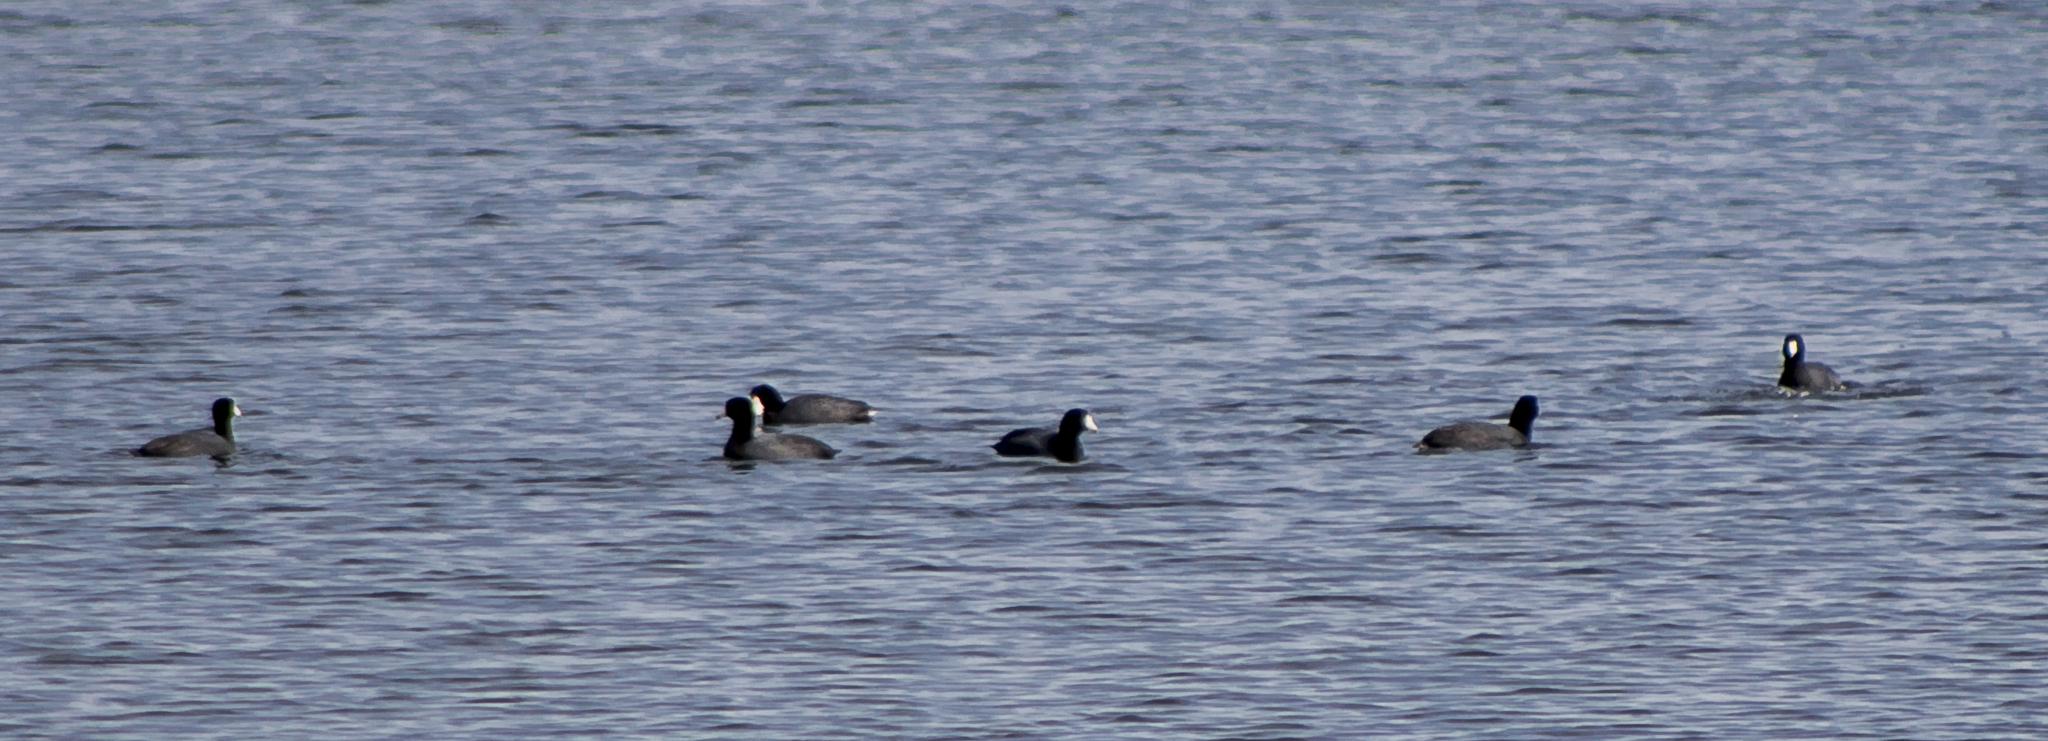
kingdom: Animalia
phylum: Chordata
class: Aves
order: Gruiformes
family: Rallidae
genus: Fulica
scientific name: Fulica americana
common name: American coot
